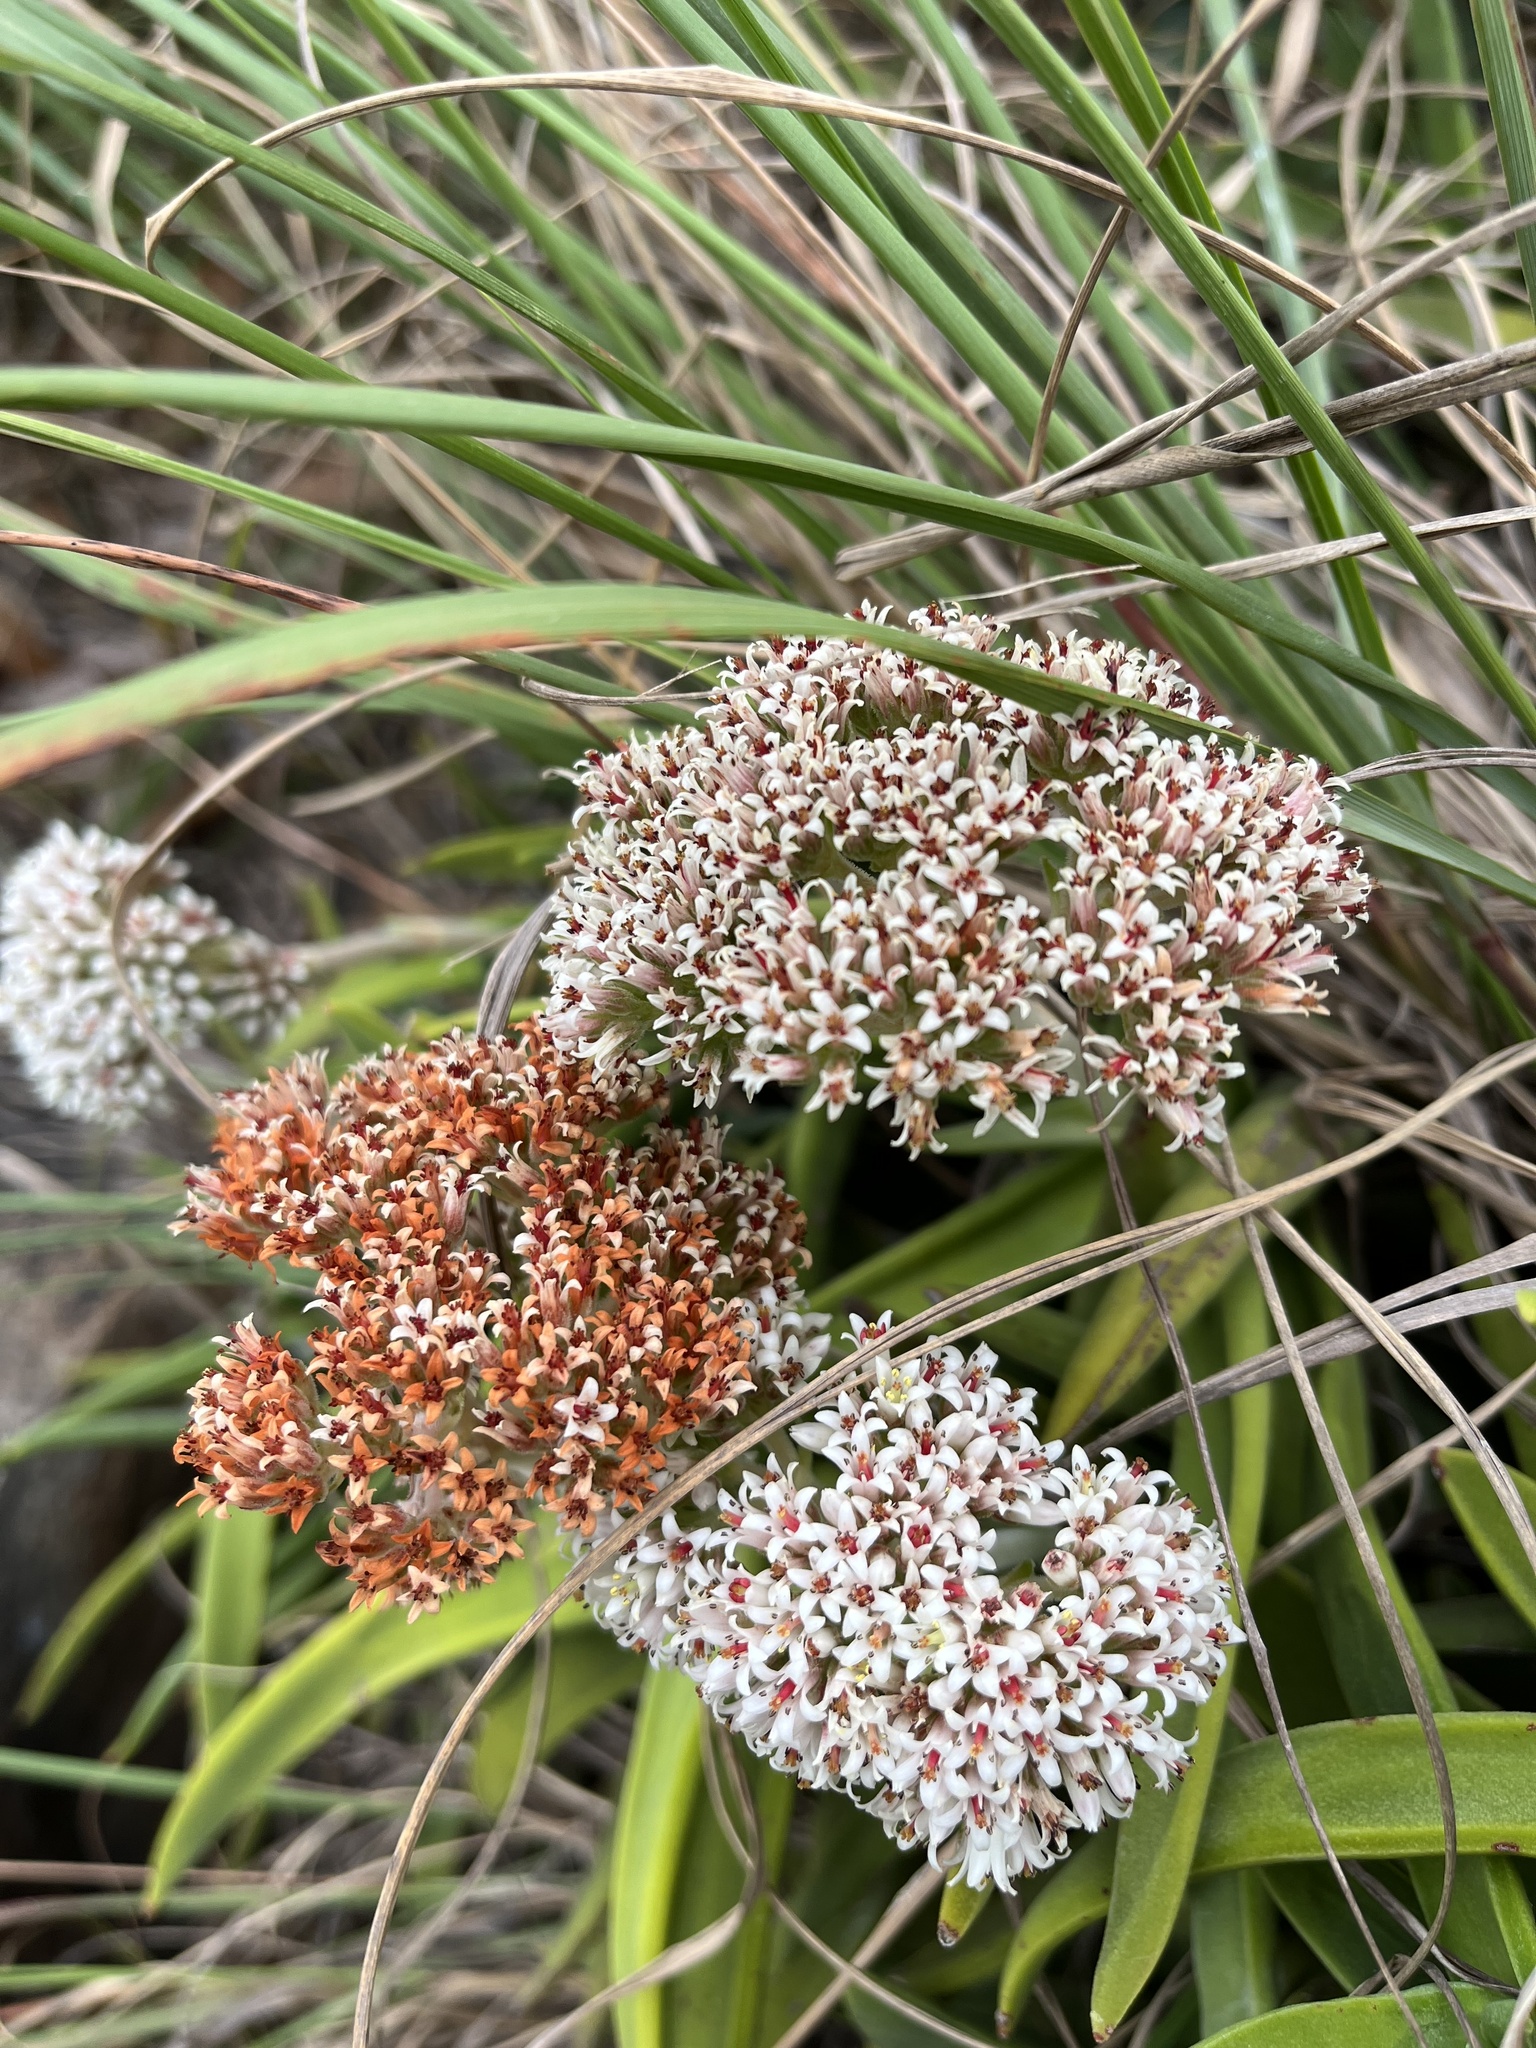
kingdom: Plantae
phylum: Tracheophyta
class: Magnoliopsida
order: Saxifragales
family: Crassulaceae
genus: Crassula
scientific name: Crassula perfoliata
